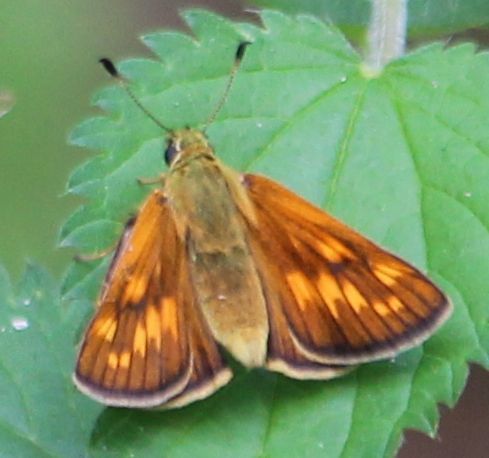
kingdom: Animalia
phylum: Arthropoda
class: Insecta
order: Lepidoptera
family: Hesperiidae
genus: Ochlodes
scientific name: Ochlodes venata
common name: Large skipper
